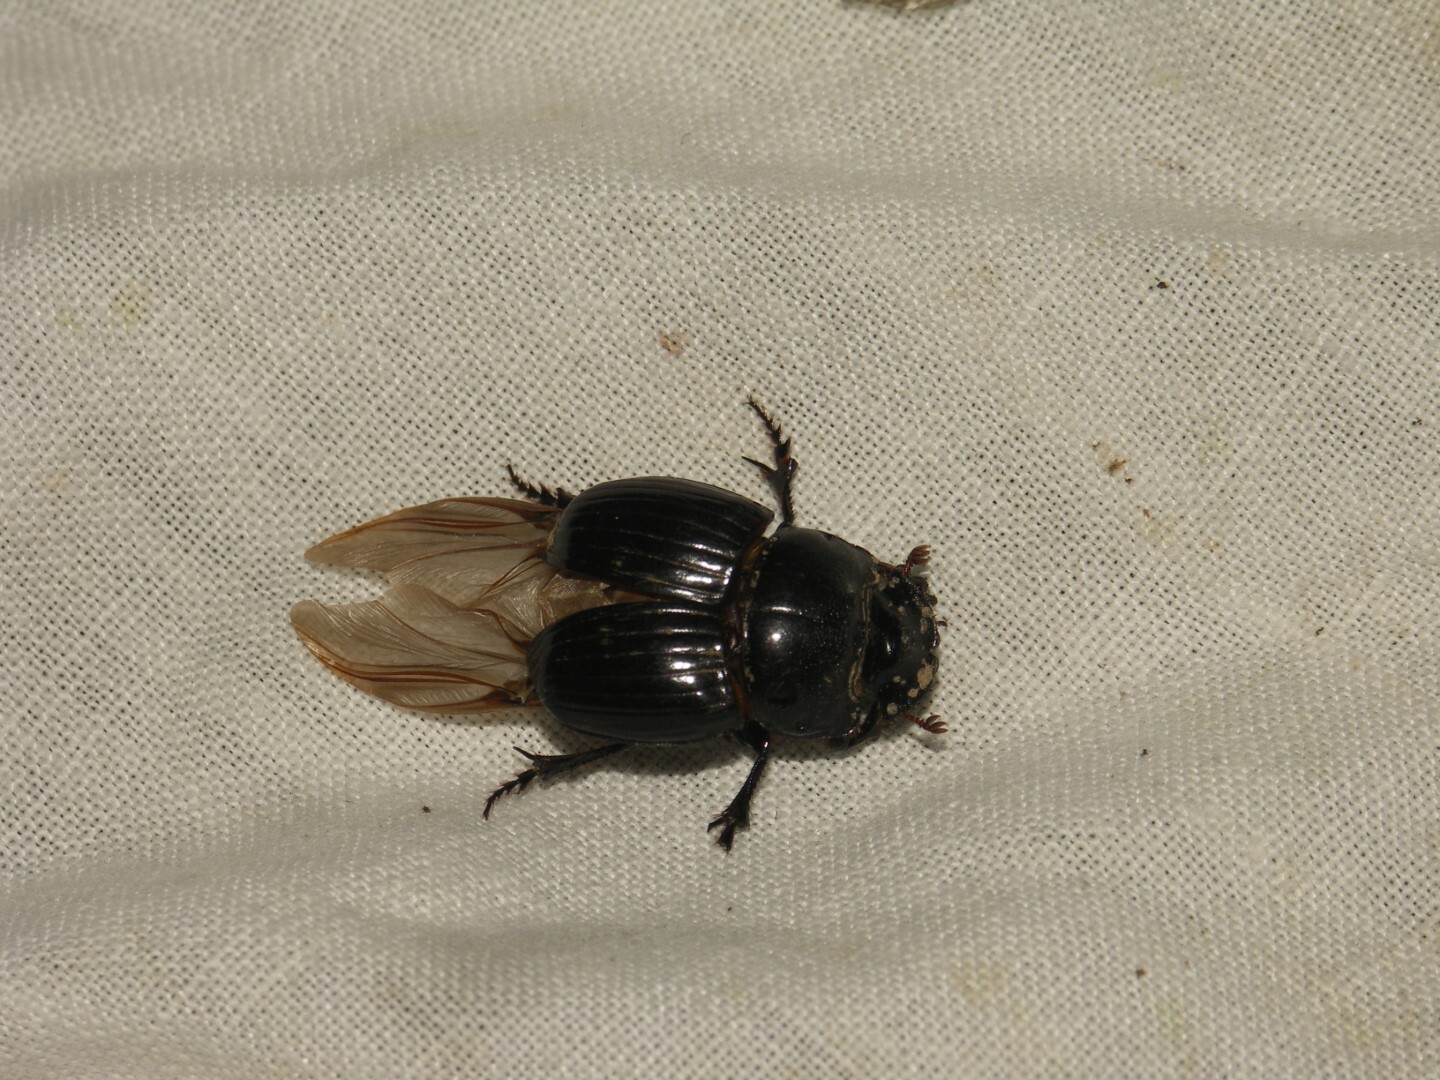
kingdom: Animalia
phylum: Arthropoda
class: Insecta
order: Coleoptera
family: Scarabaeidae
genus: Copris
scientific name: Copris lunaris
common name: Horned dung beetle
